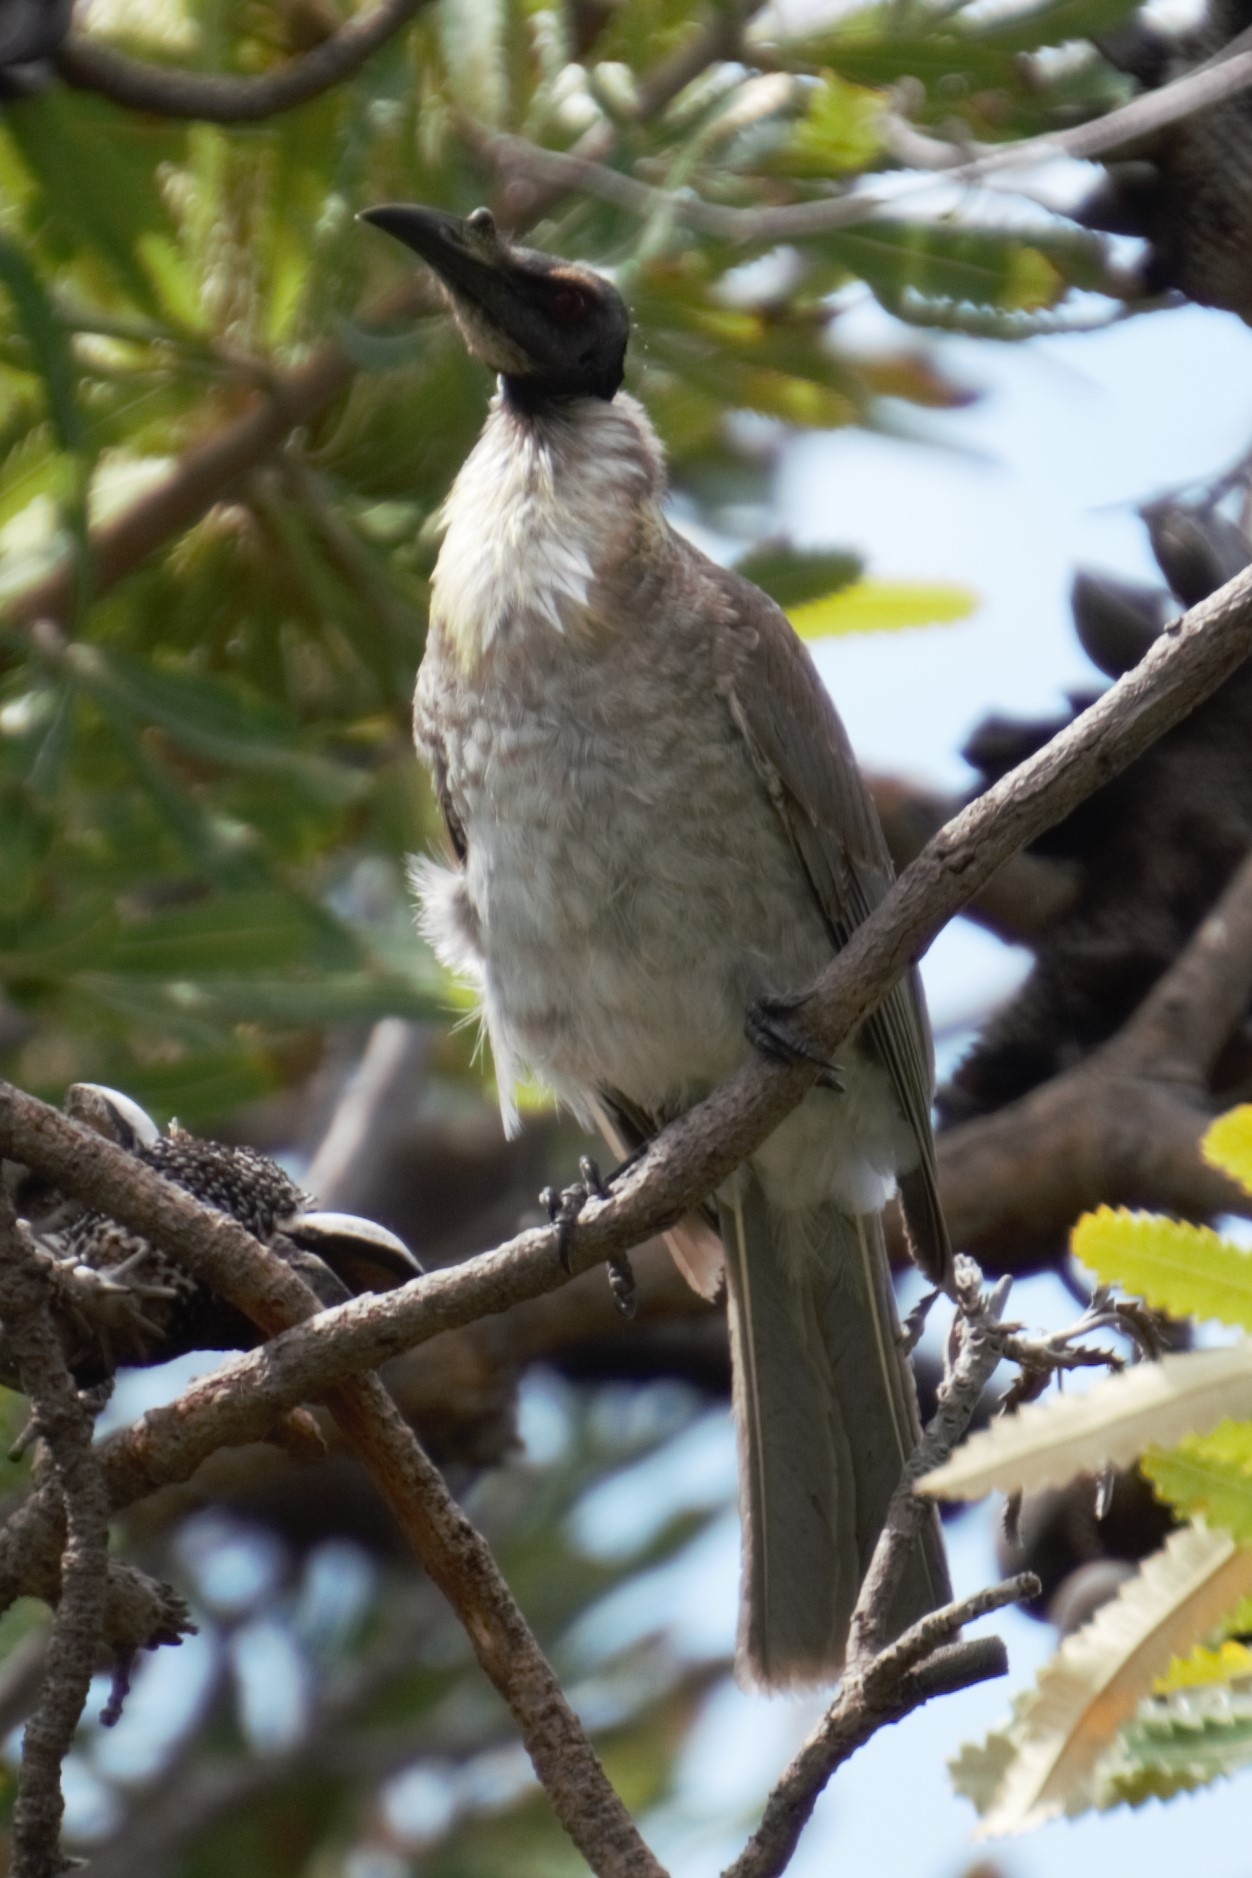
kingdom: Animalia
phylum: Chordata
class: Aves
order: Passeriformes
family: Meliphagidae
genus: Philemon
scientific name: Philemon corniculatus
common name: Noisy friarbird
